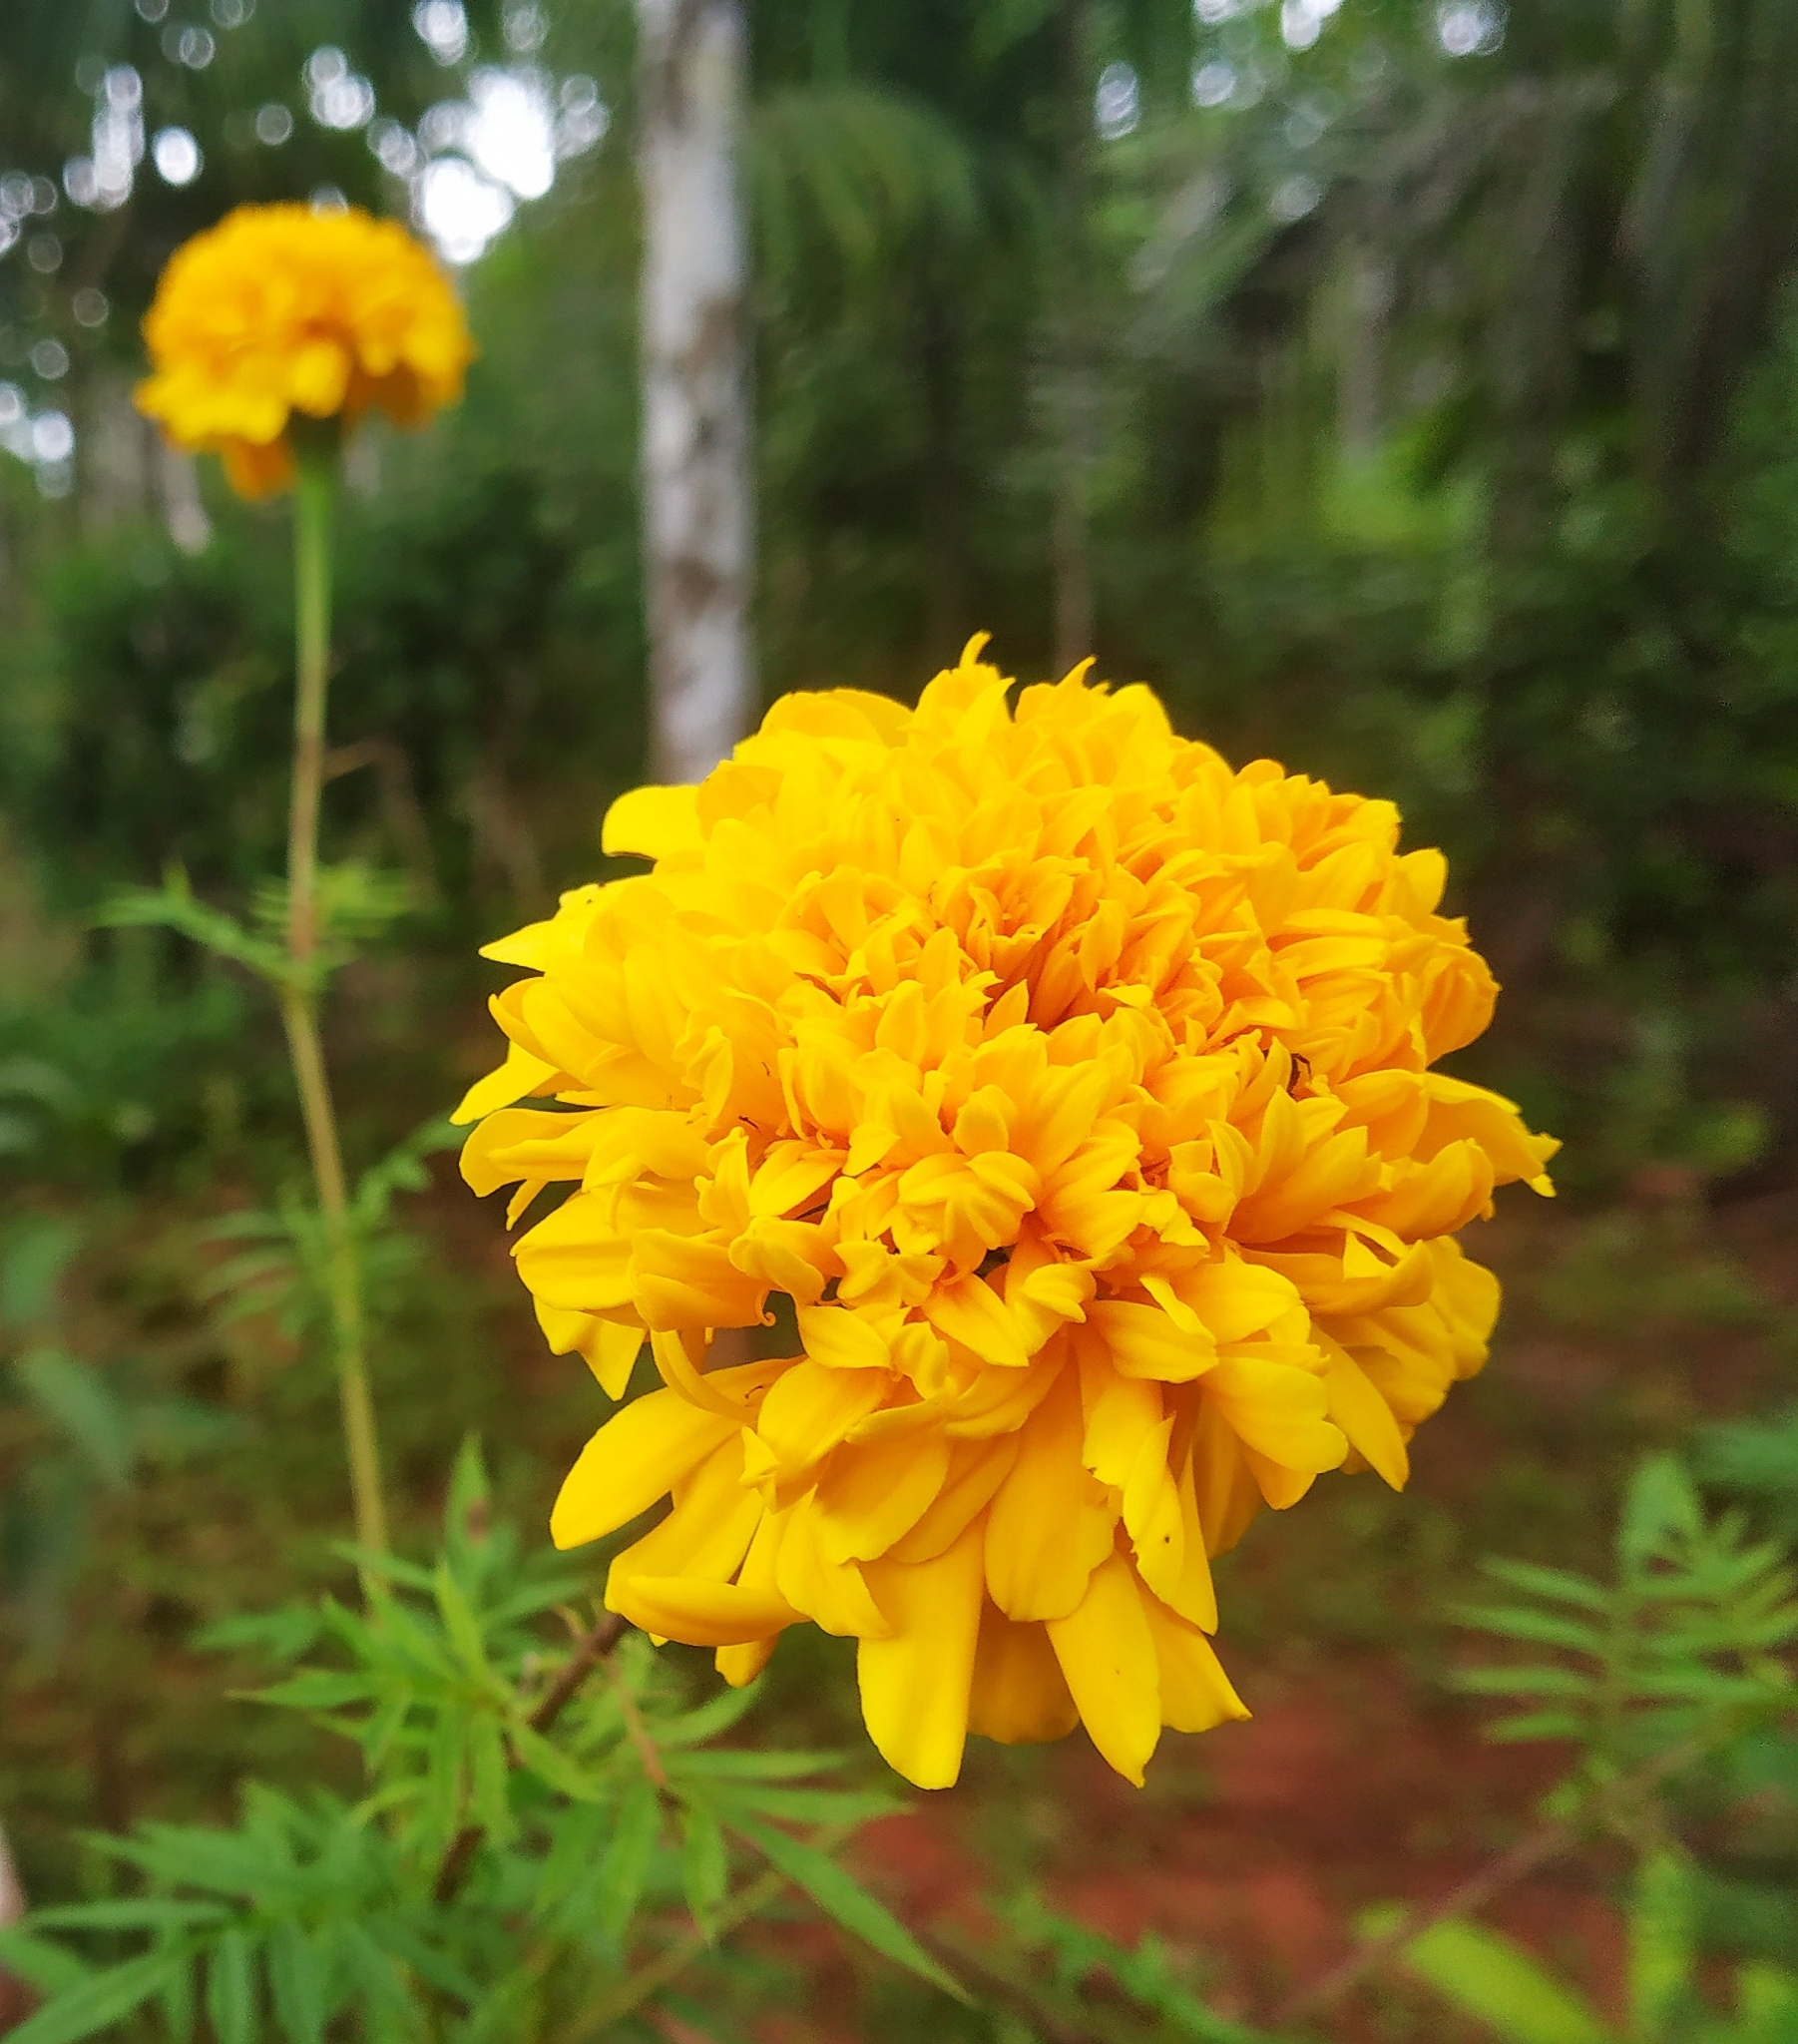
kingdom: Plantae
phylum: Tracheophyta
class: Magnoliopsida
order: Asterales
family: Asteraceae
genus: Tagetes
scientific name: Tagetes erecta
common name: African marigold
